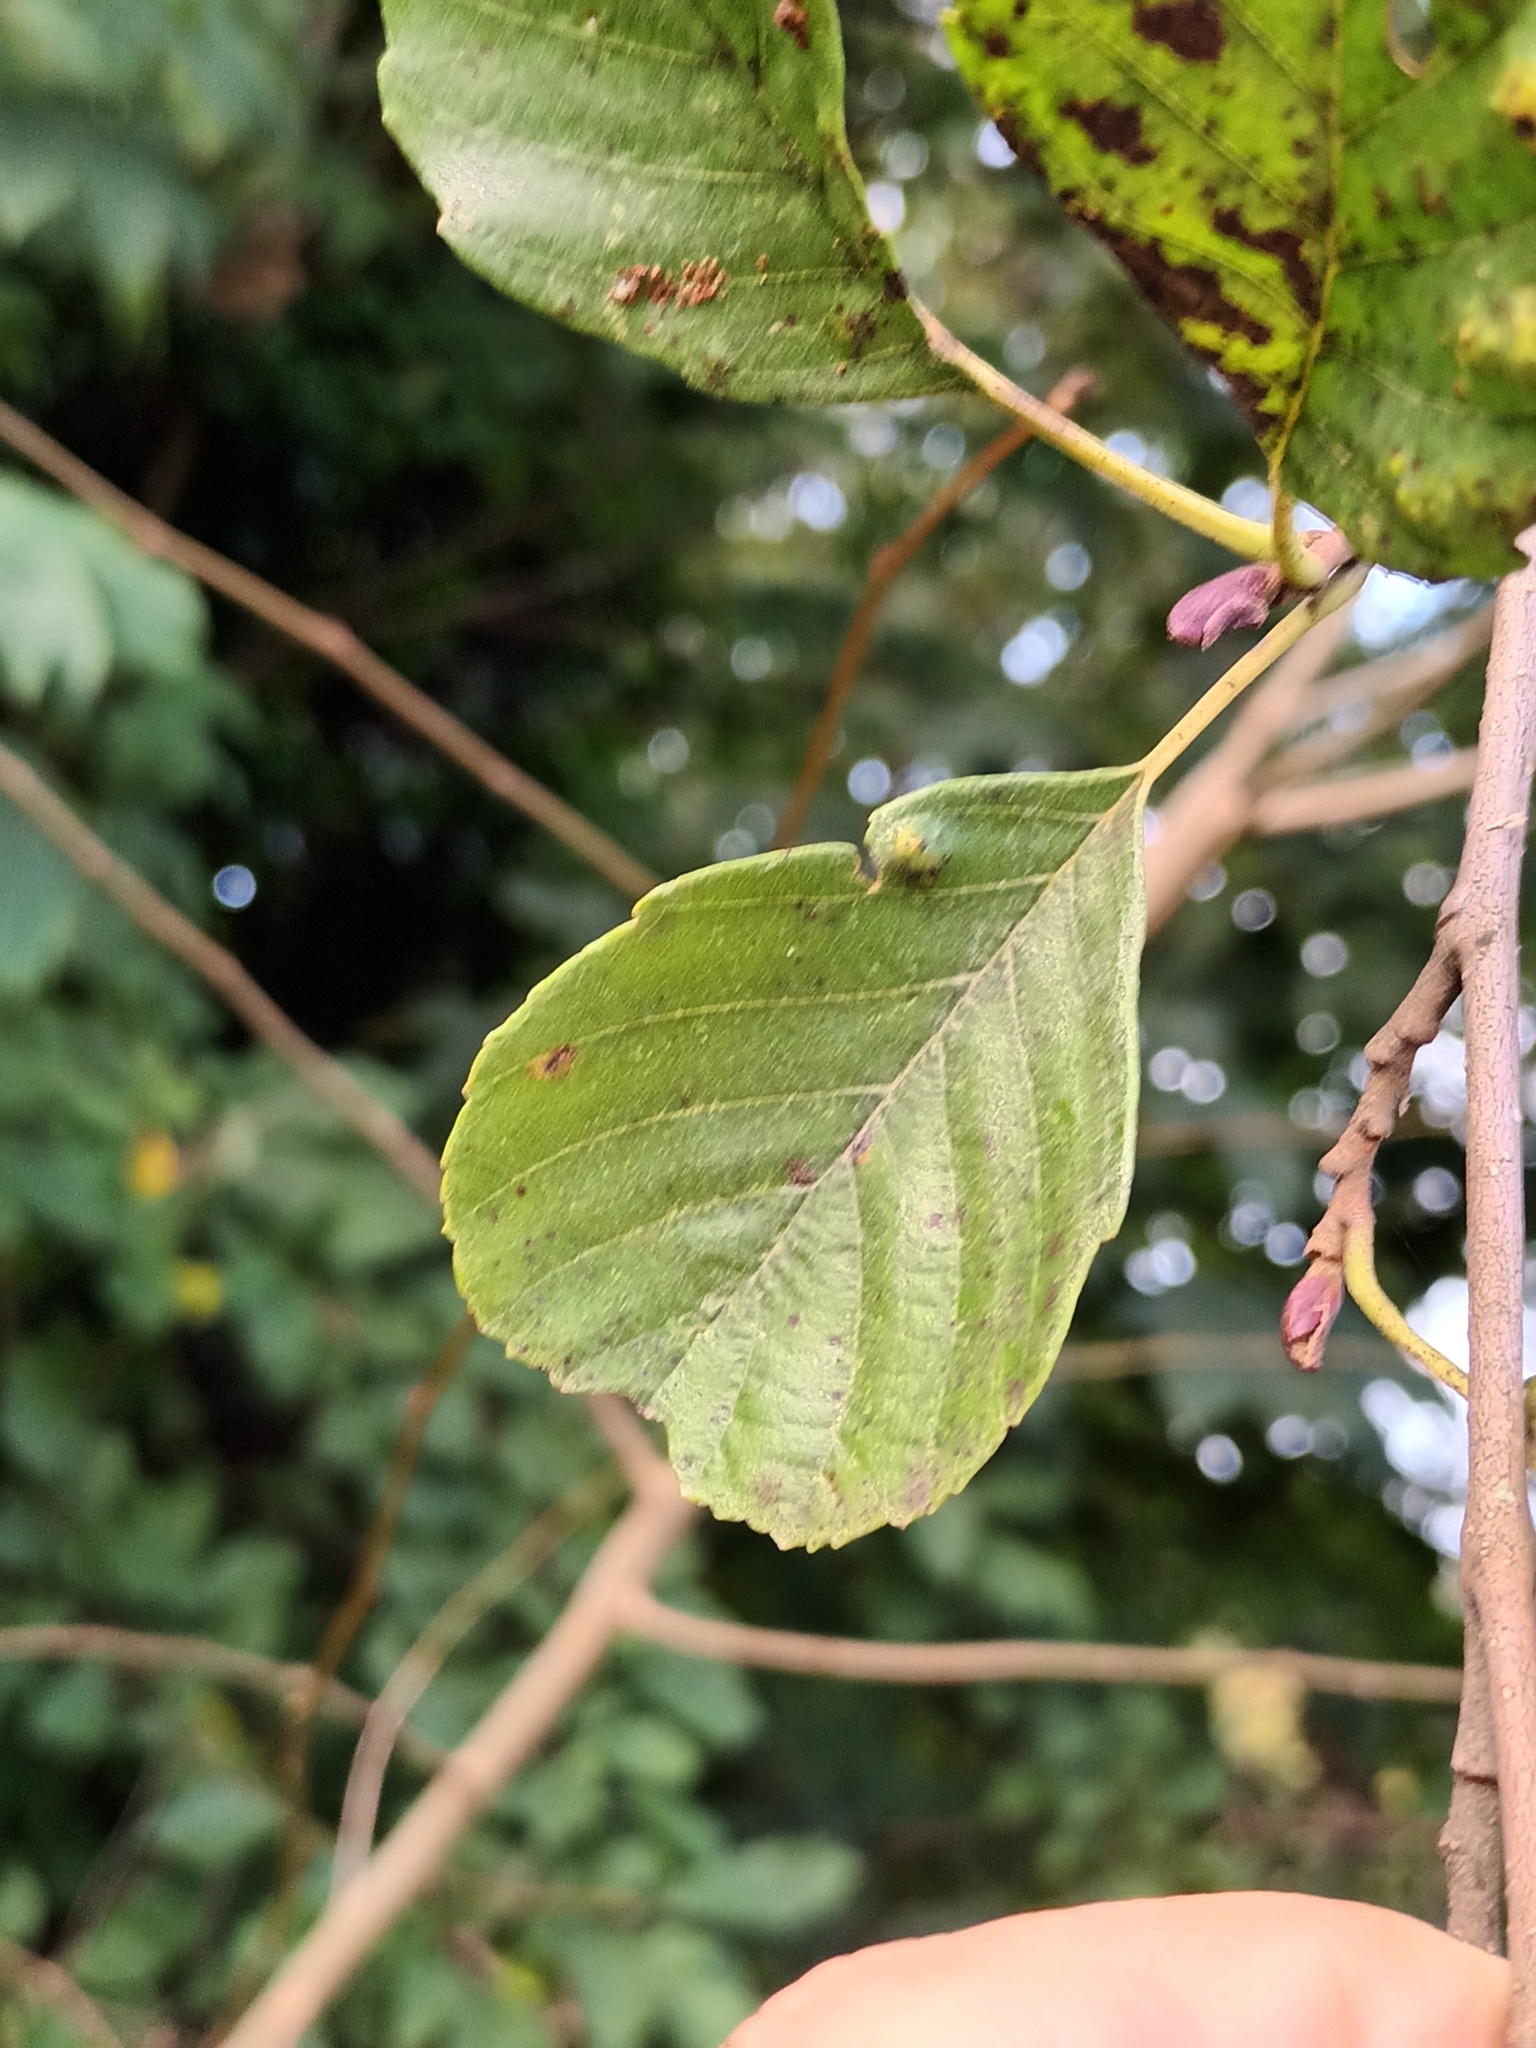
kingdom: Plantae
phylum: Tracheophyta
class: Magnoliopsida
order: Fagales
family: Betulaceae
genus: Alnus
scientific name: Alnus glutinosa
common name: Black alder
